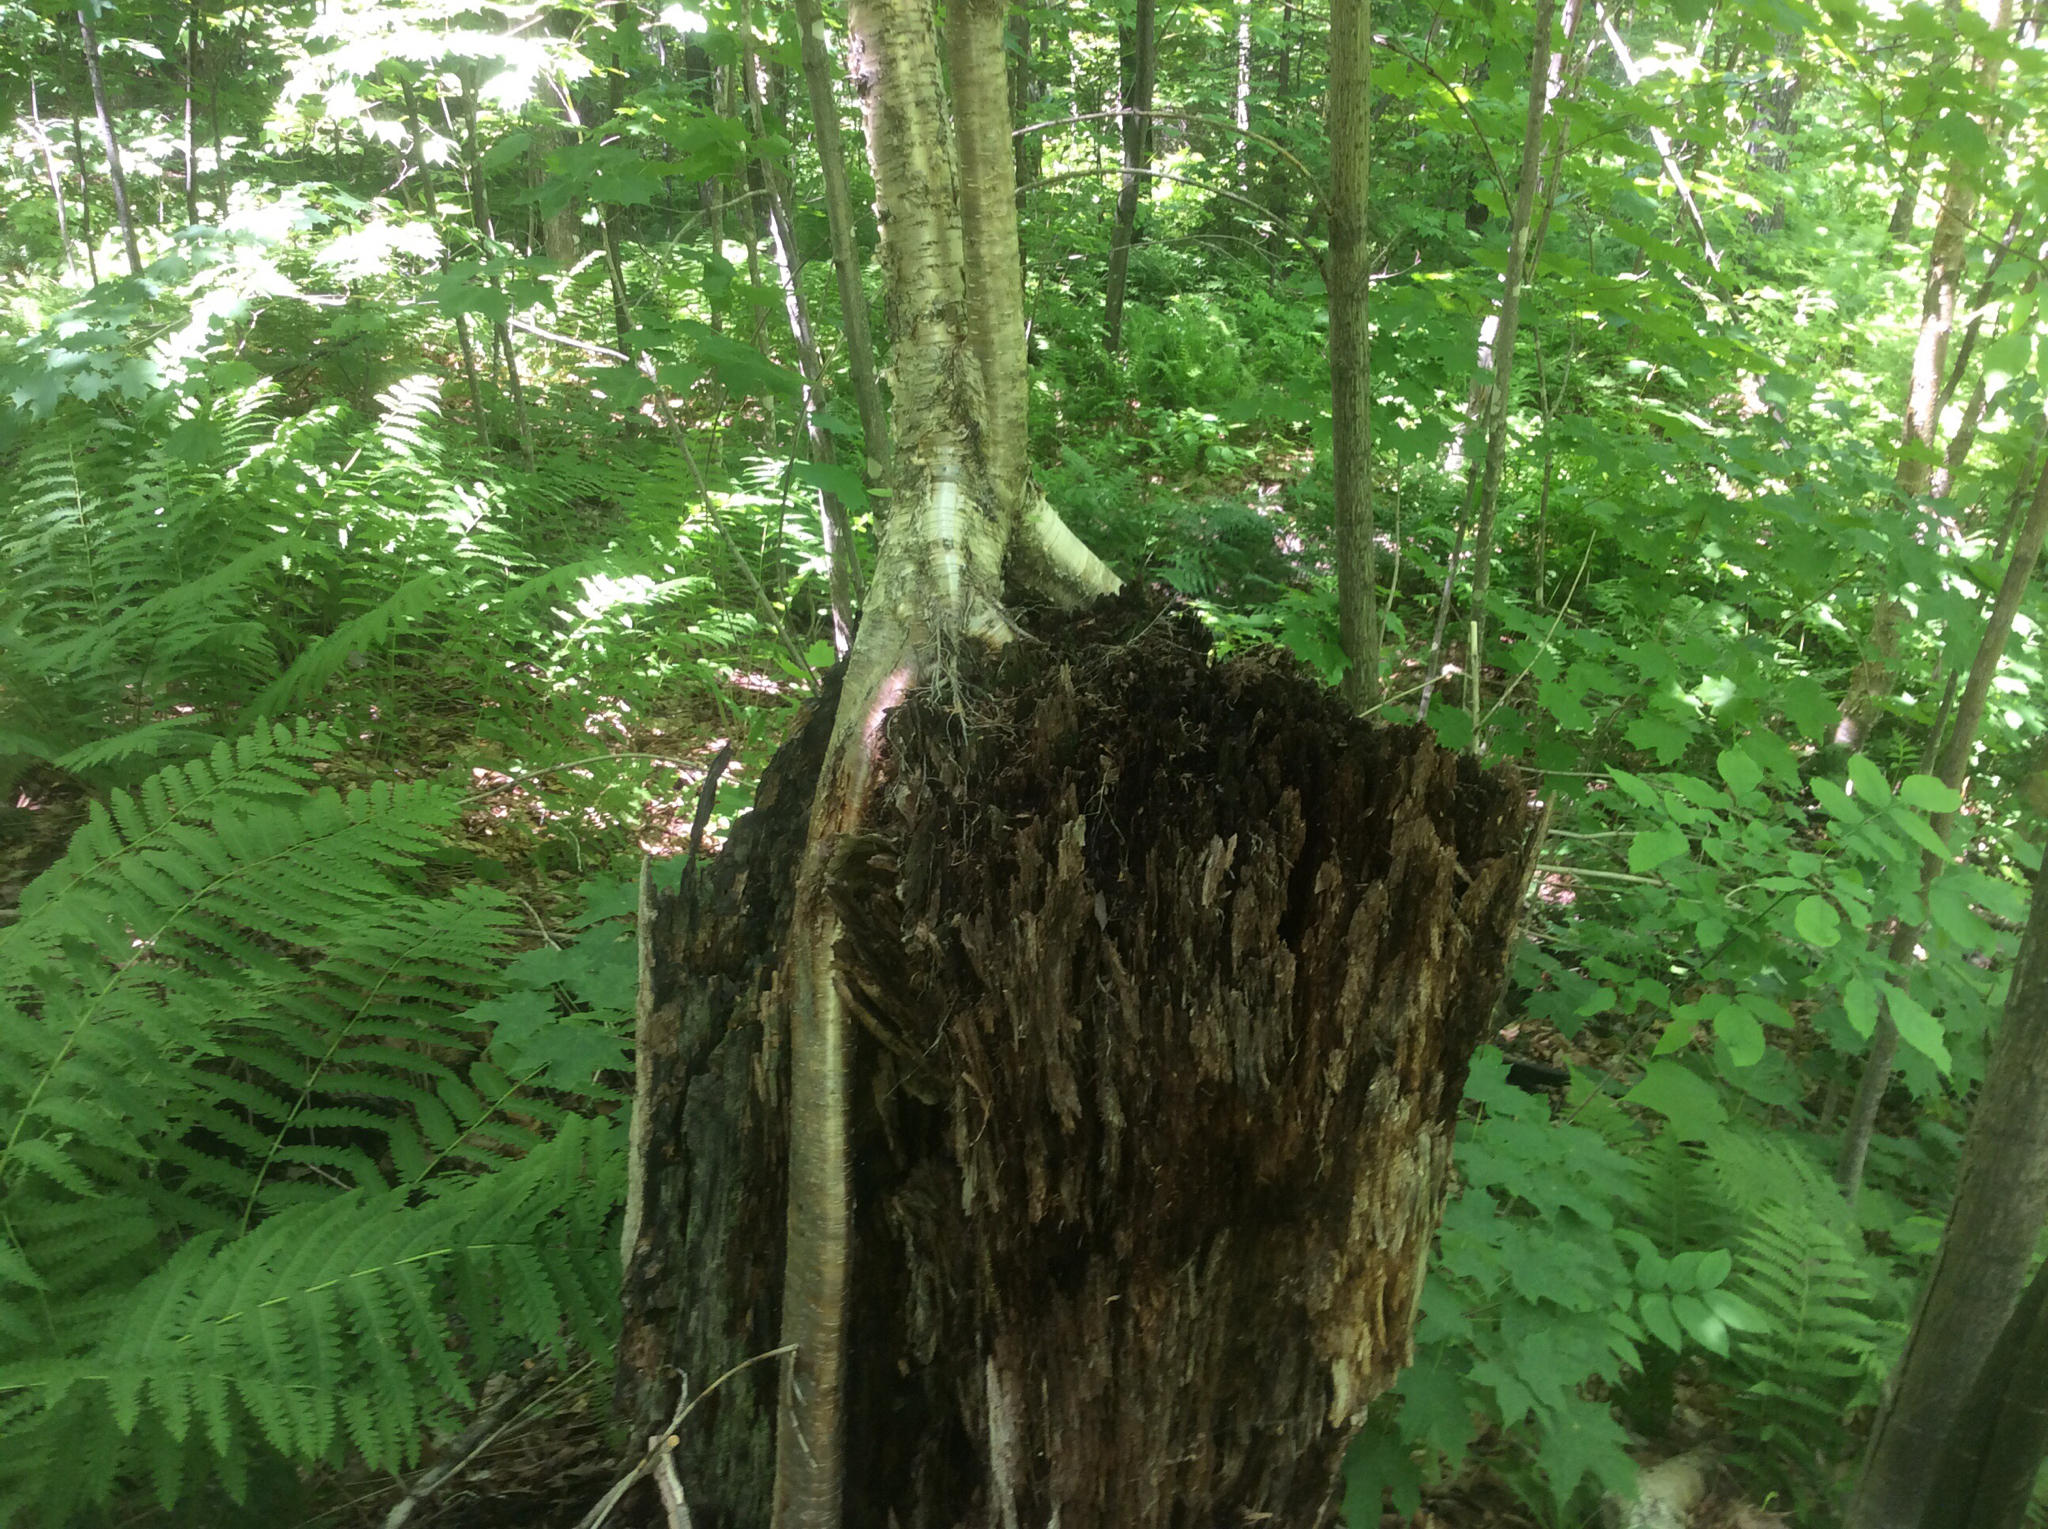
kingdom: Plantae
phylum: Tracheophyta
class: Magnoliopsida
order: Fagales
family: Betulaceae
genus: Betula
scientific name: Betula alleghaniensis
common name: Yellow birch
